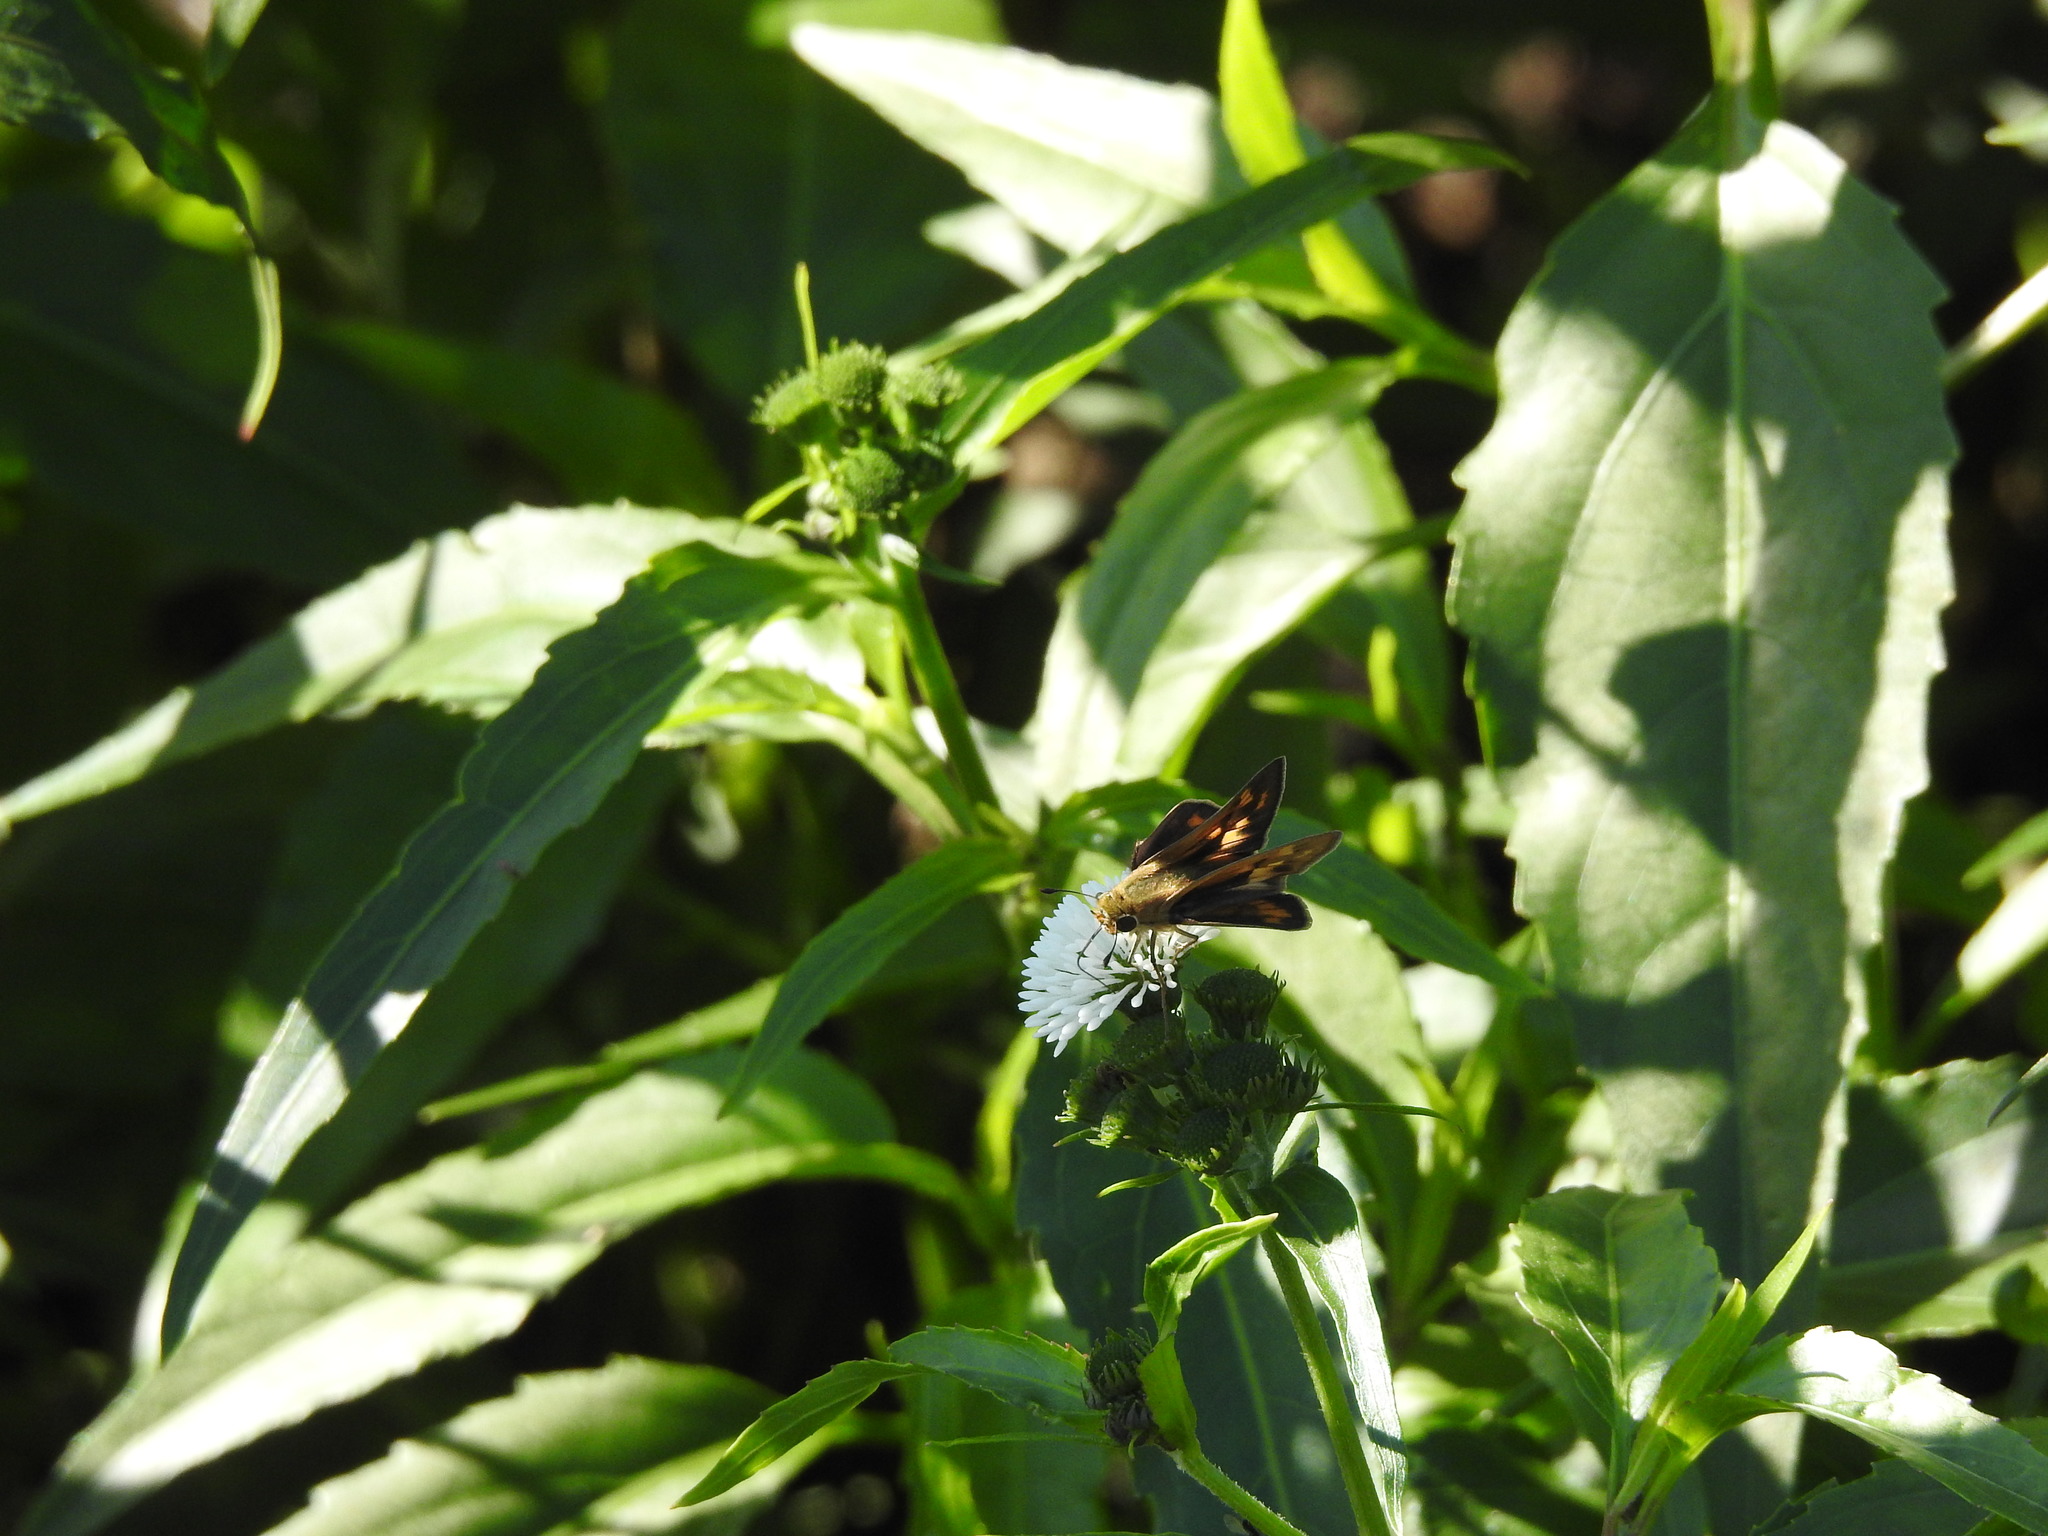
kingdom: Animalia
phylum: Arthropoda
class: Insecta
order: Lepidoptera
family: Hesperiidae
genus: Hylephila
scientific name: Hylephila phyleus
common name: Fiery skipper
